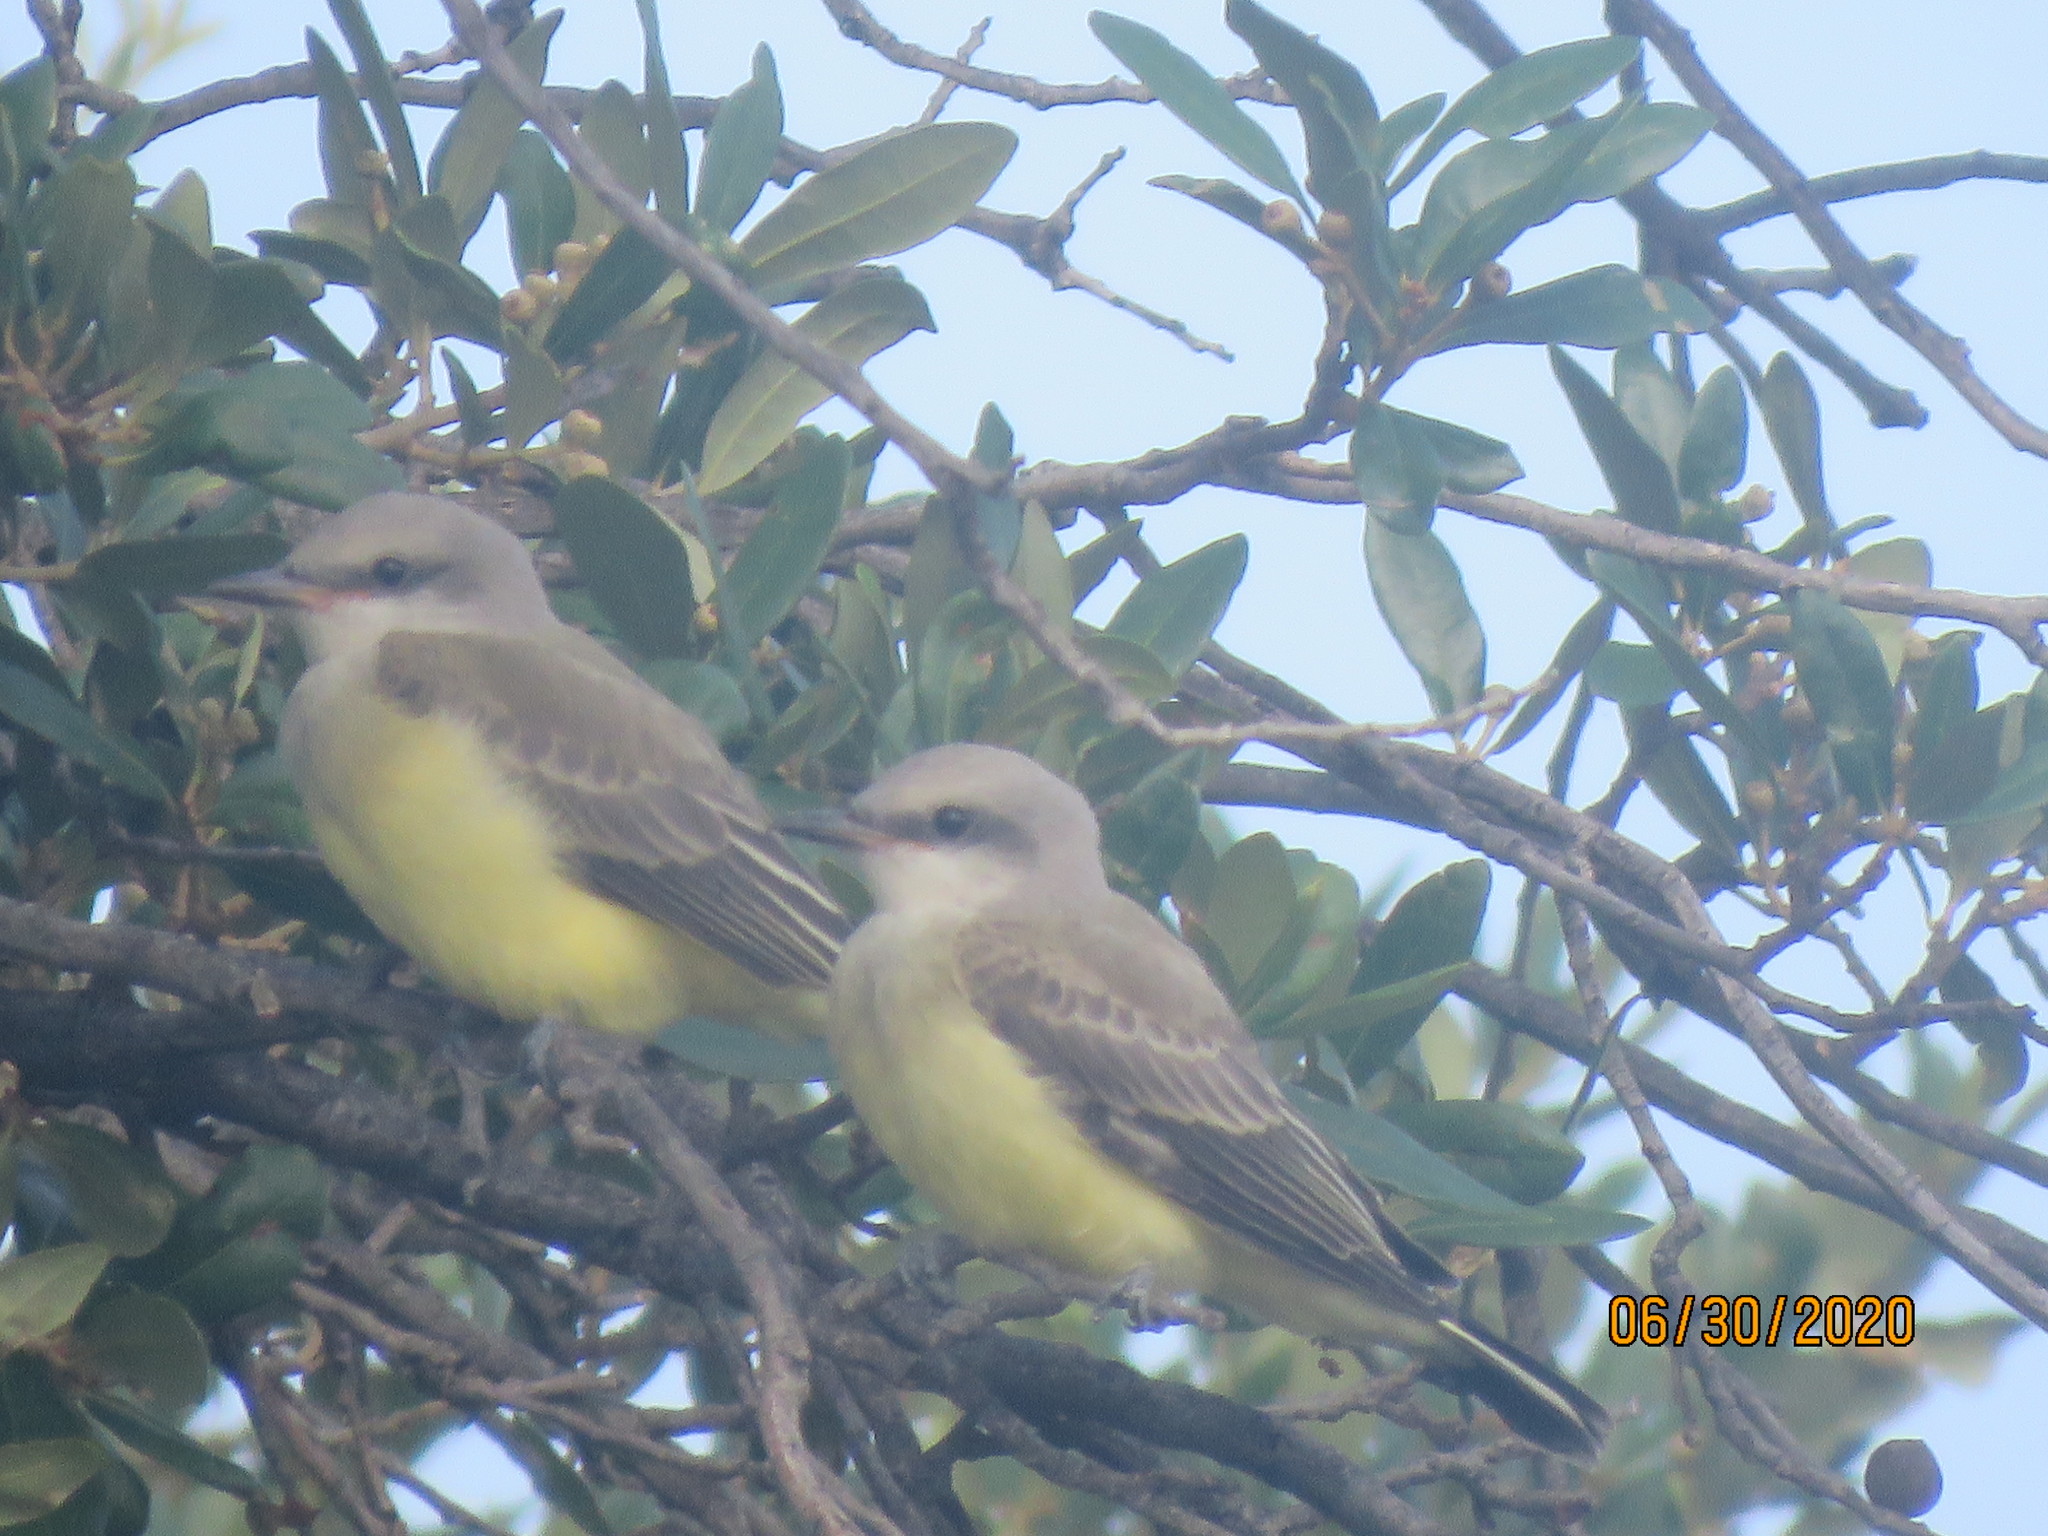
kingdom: Animalia
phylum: Chordata
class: Aves
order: Passeriformes
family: Tyrannidae
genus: Tyrannus
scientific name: Tyrannus verticalis
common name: Western kingbird
